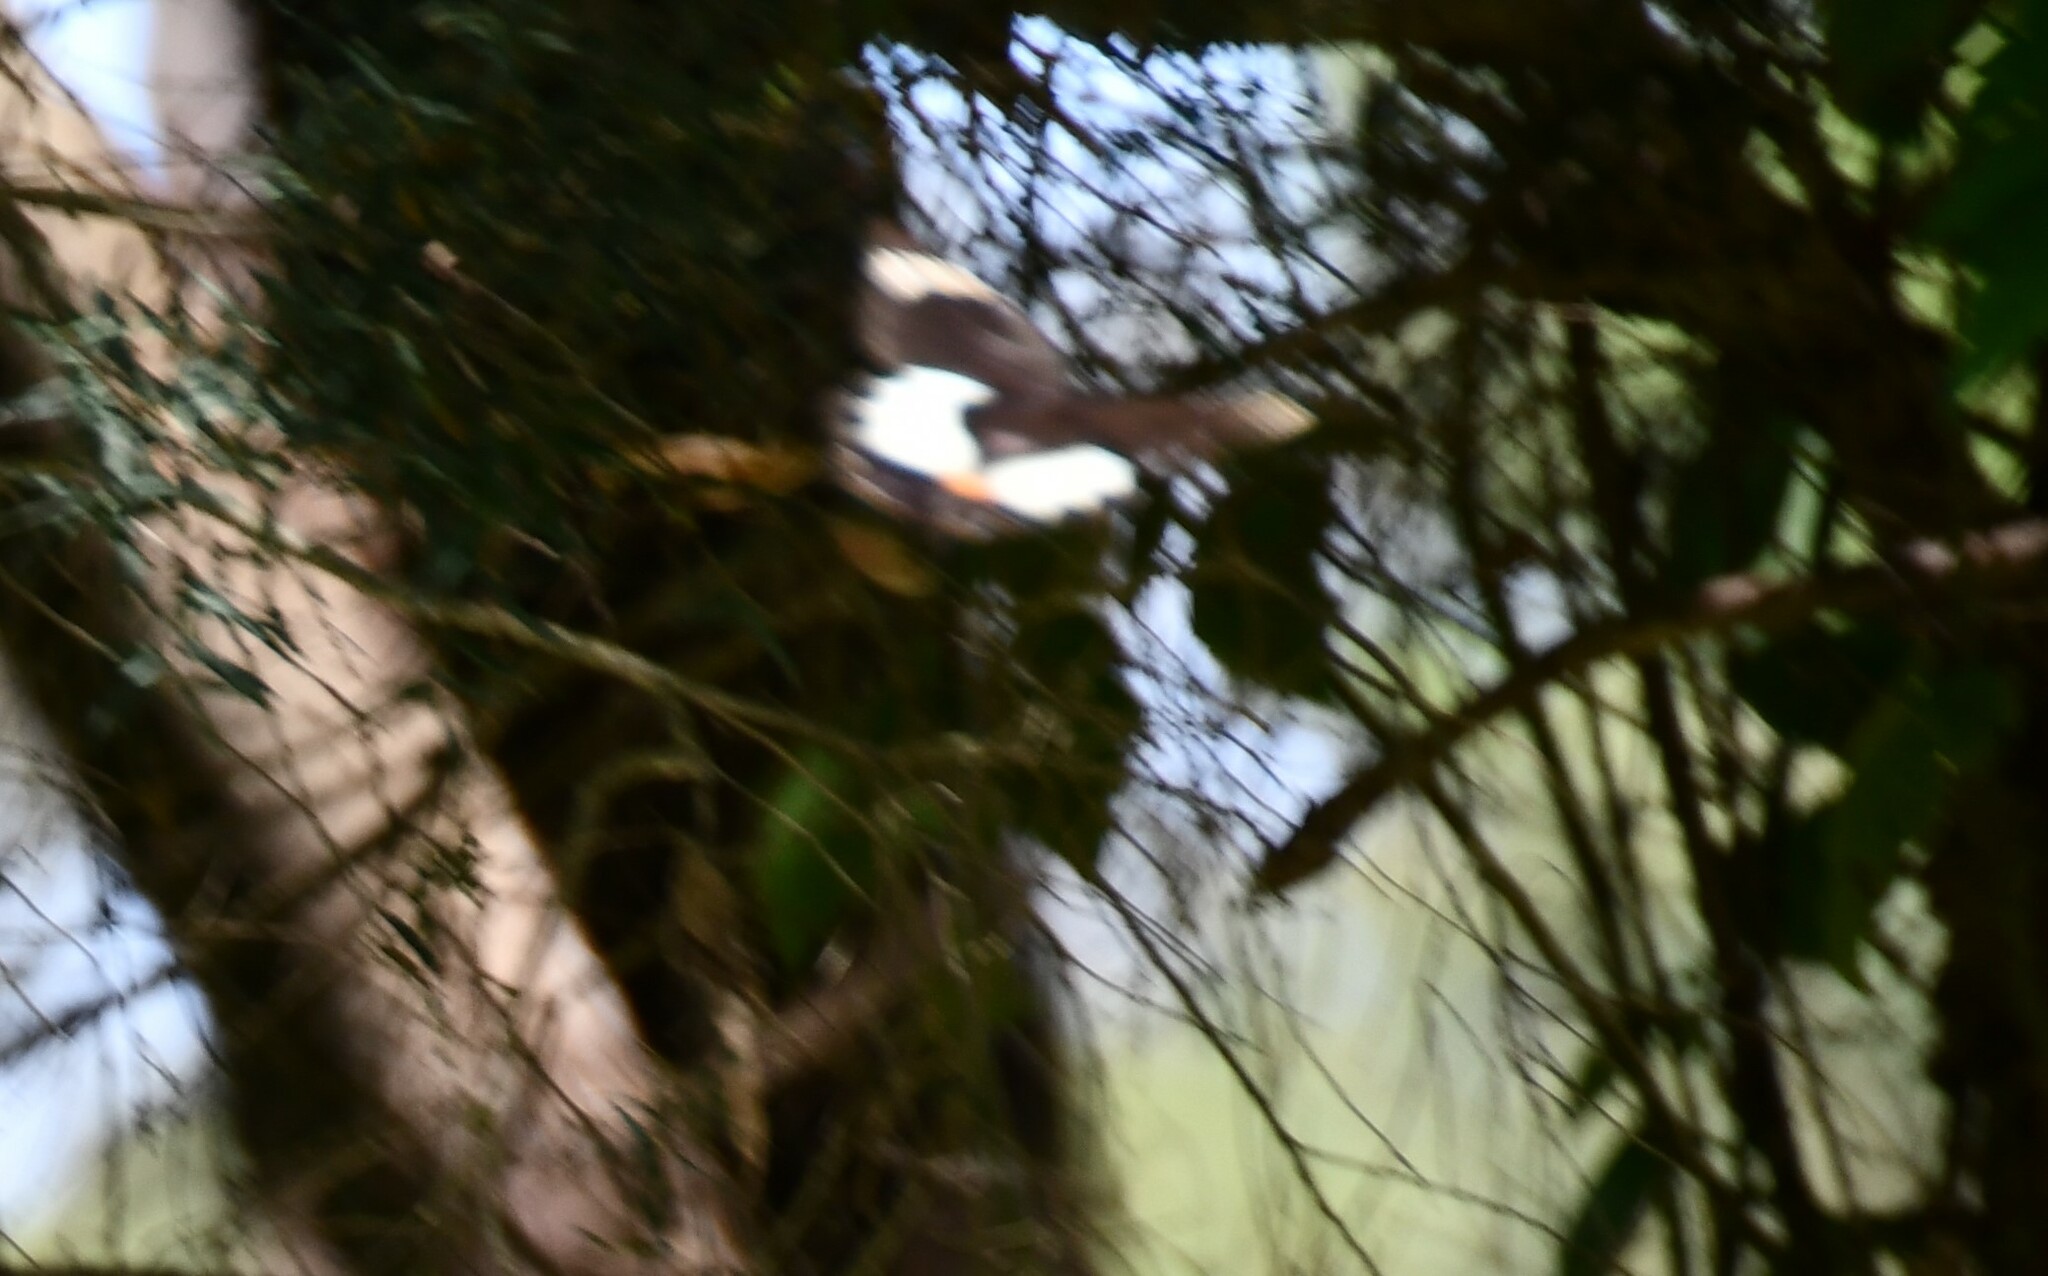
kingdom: Animalia
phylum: Arthropoda
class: Insecta
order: Lepidoptera
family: Papilionidae
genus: Papilio
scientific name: Papilio aegeus
